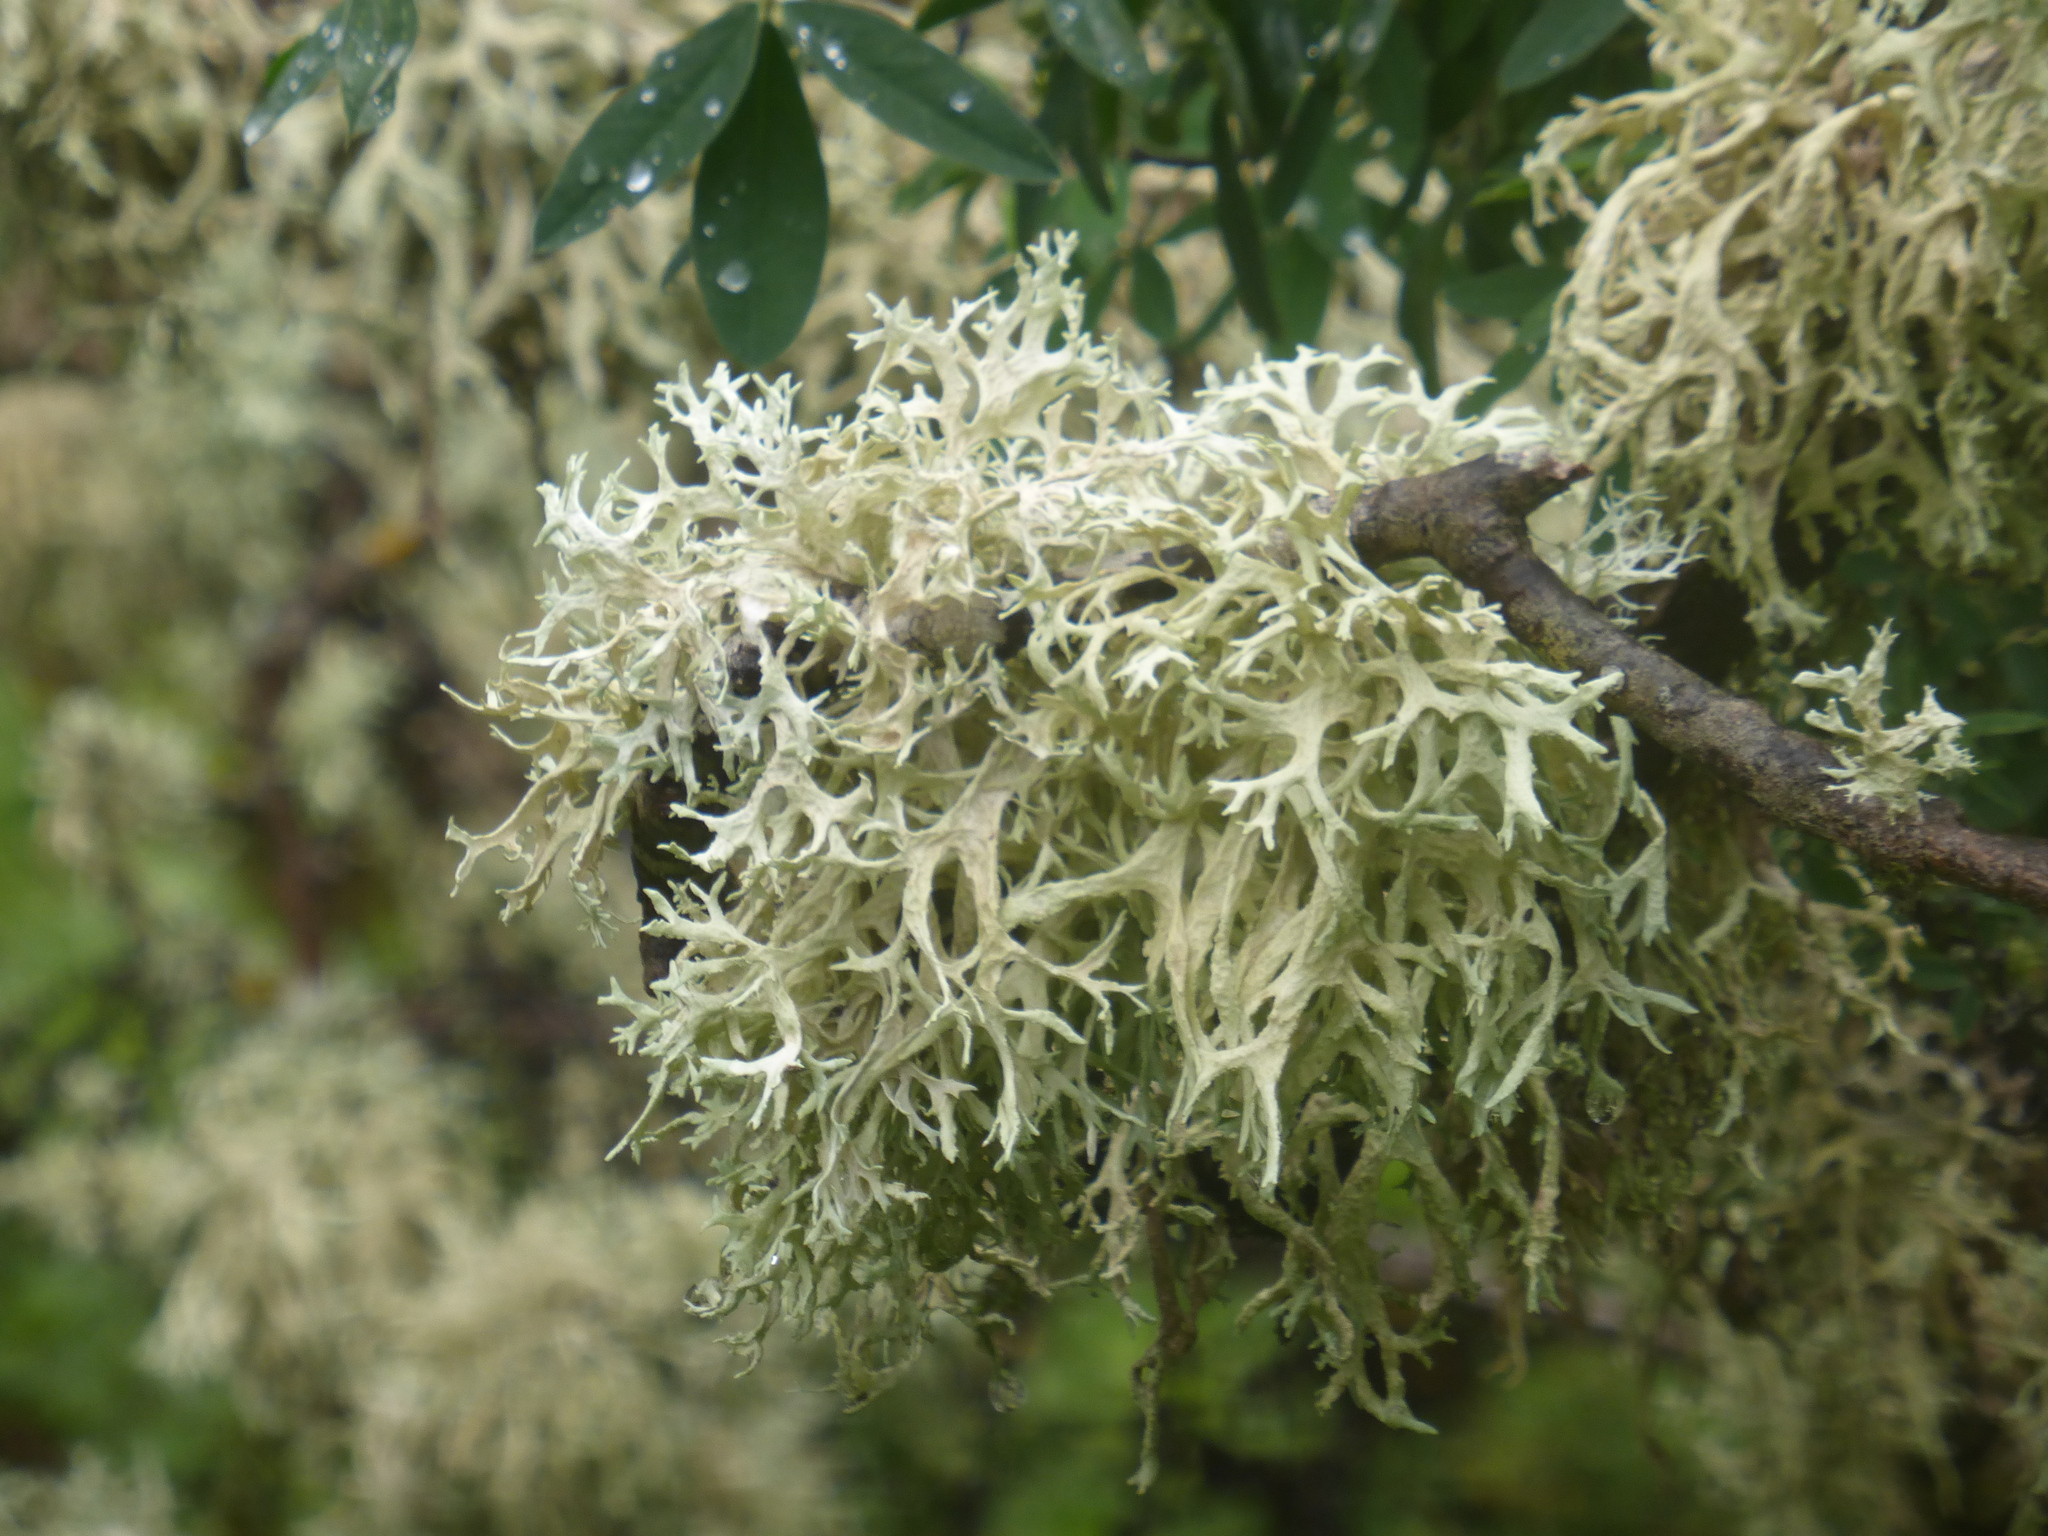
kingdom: Fungi
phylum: Ascomycota
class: Lecanoromycetes
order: Lecanorales
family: Parmeliaceae
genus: Evernia
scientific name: Evernia prunastri
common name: Oak moss
